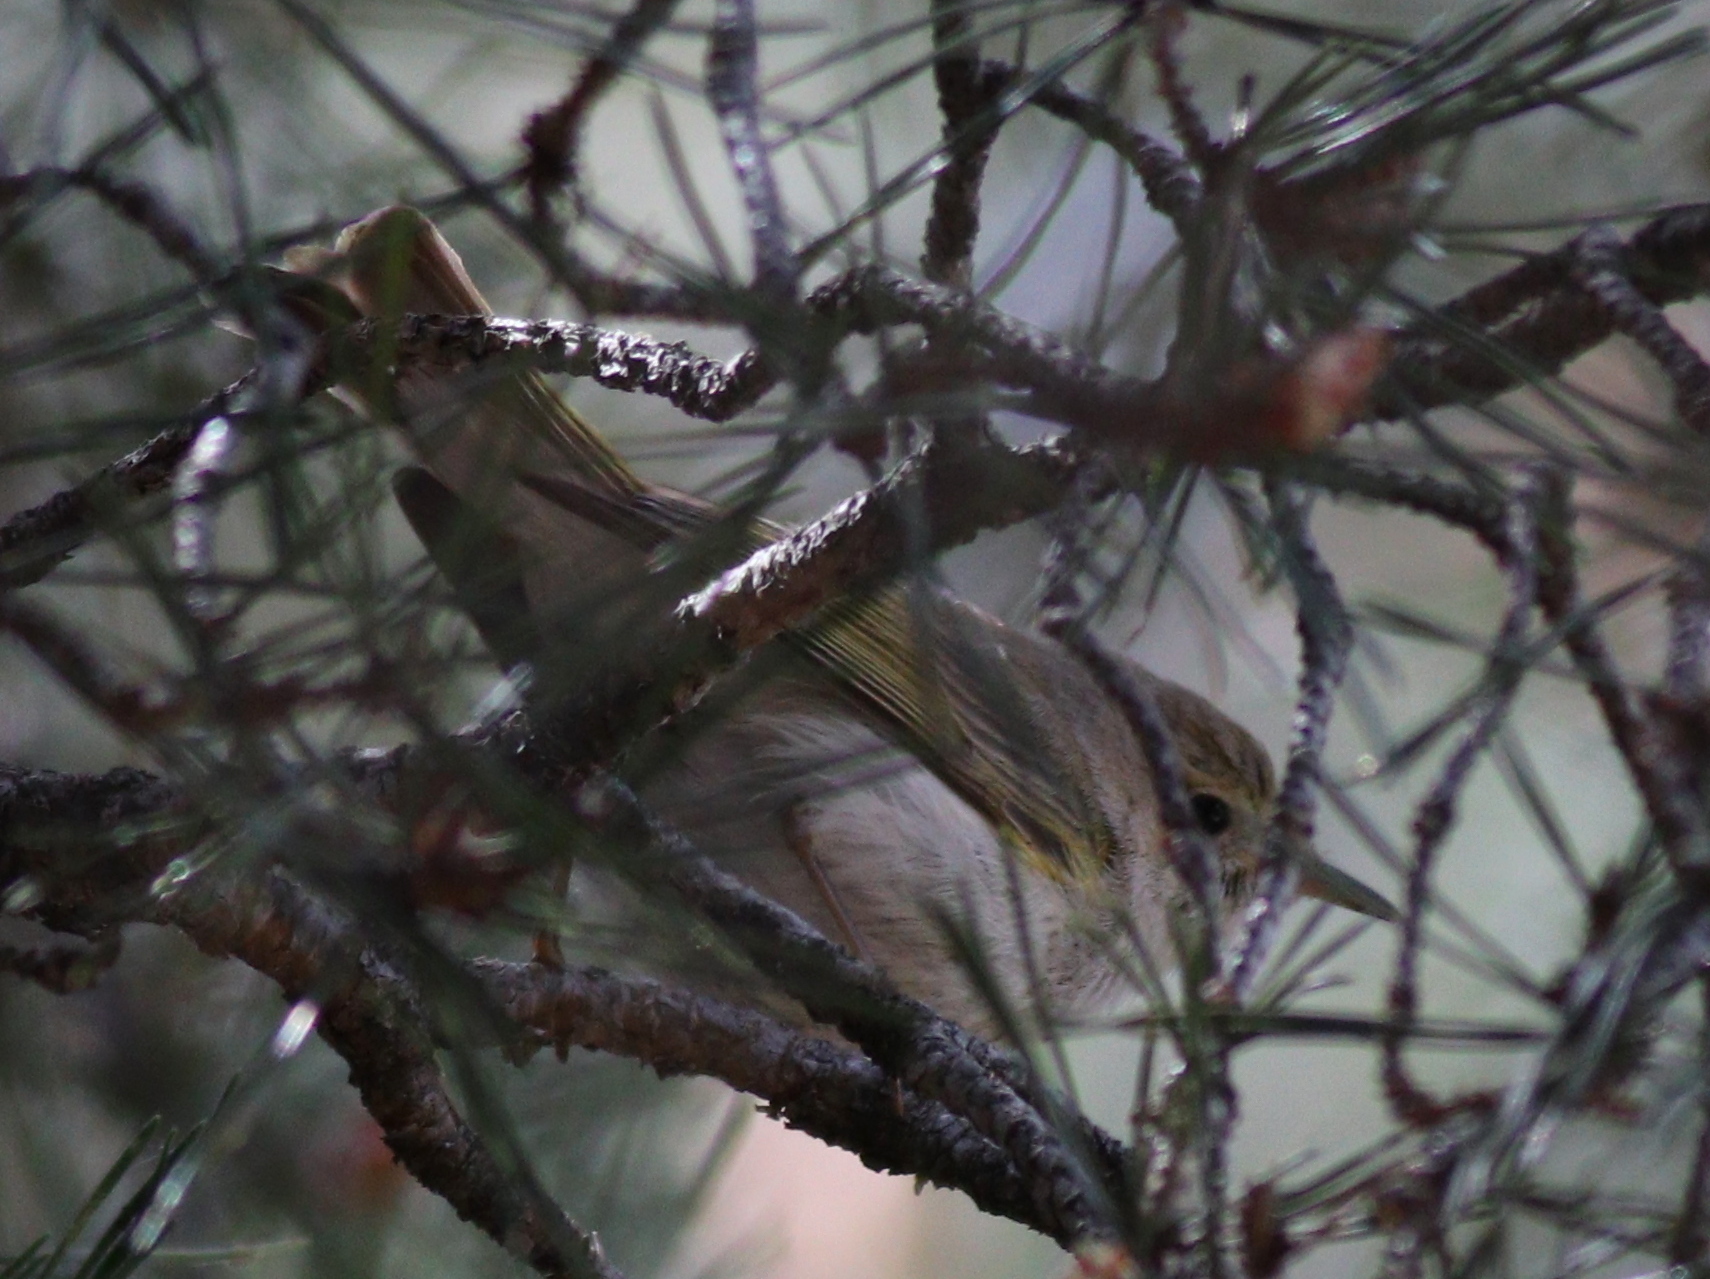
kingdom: Animalia
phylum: Chordata
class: Aves
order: Passeriformes
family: Phylloscopidae
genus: Phylloscopus
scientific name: Phylloscopus bonelli
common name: Western bonelli's warbler
